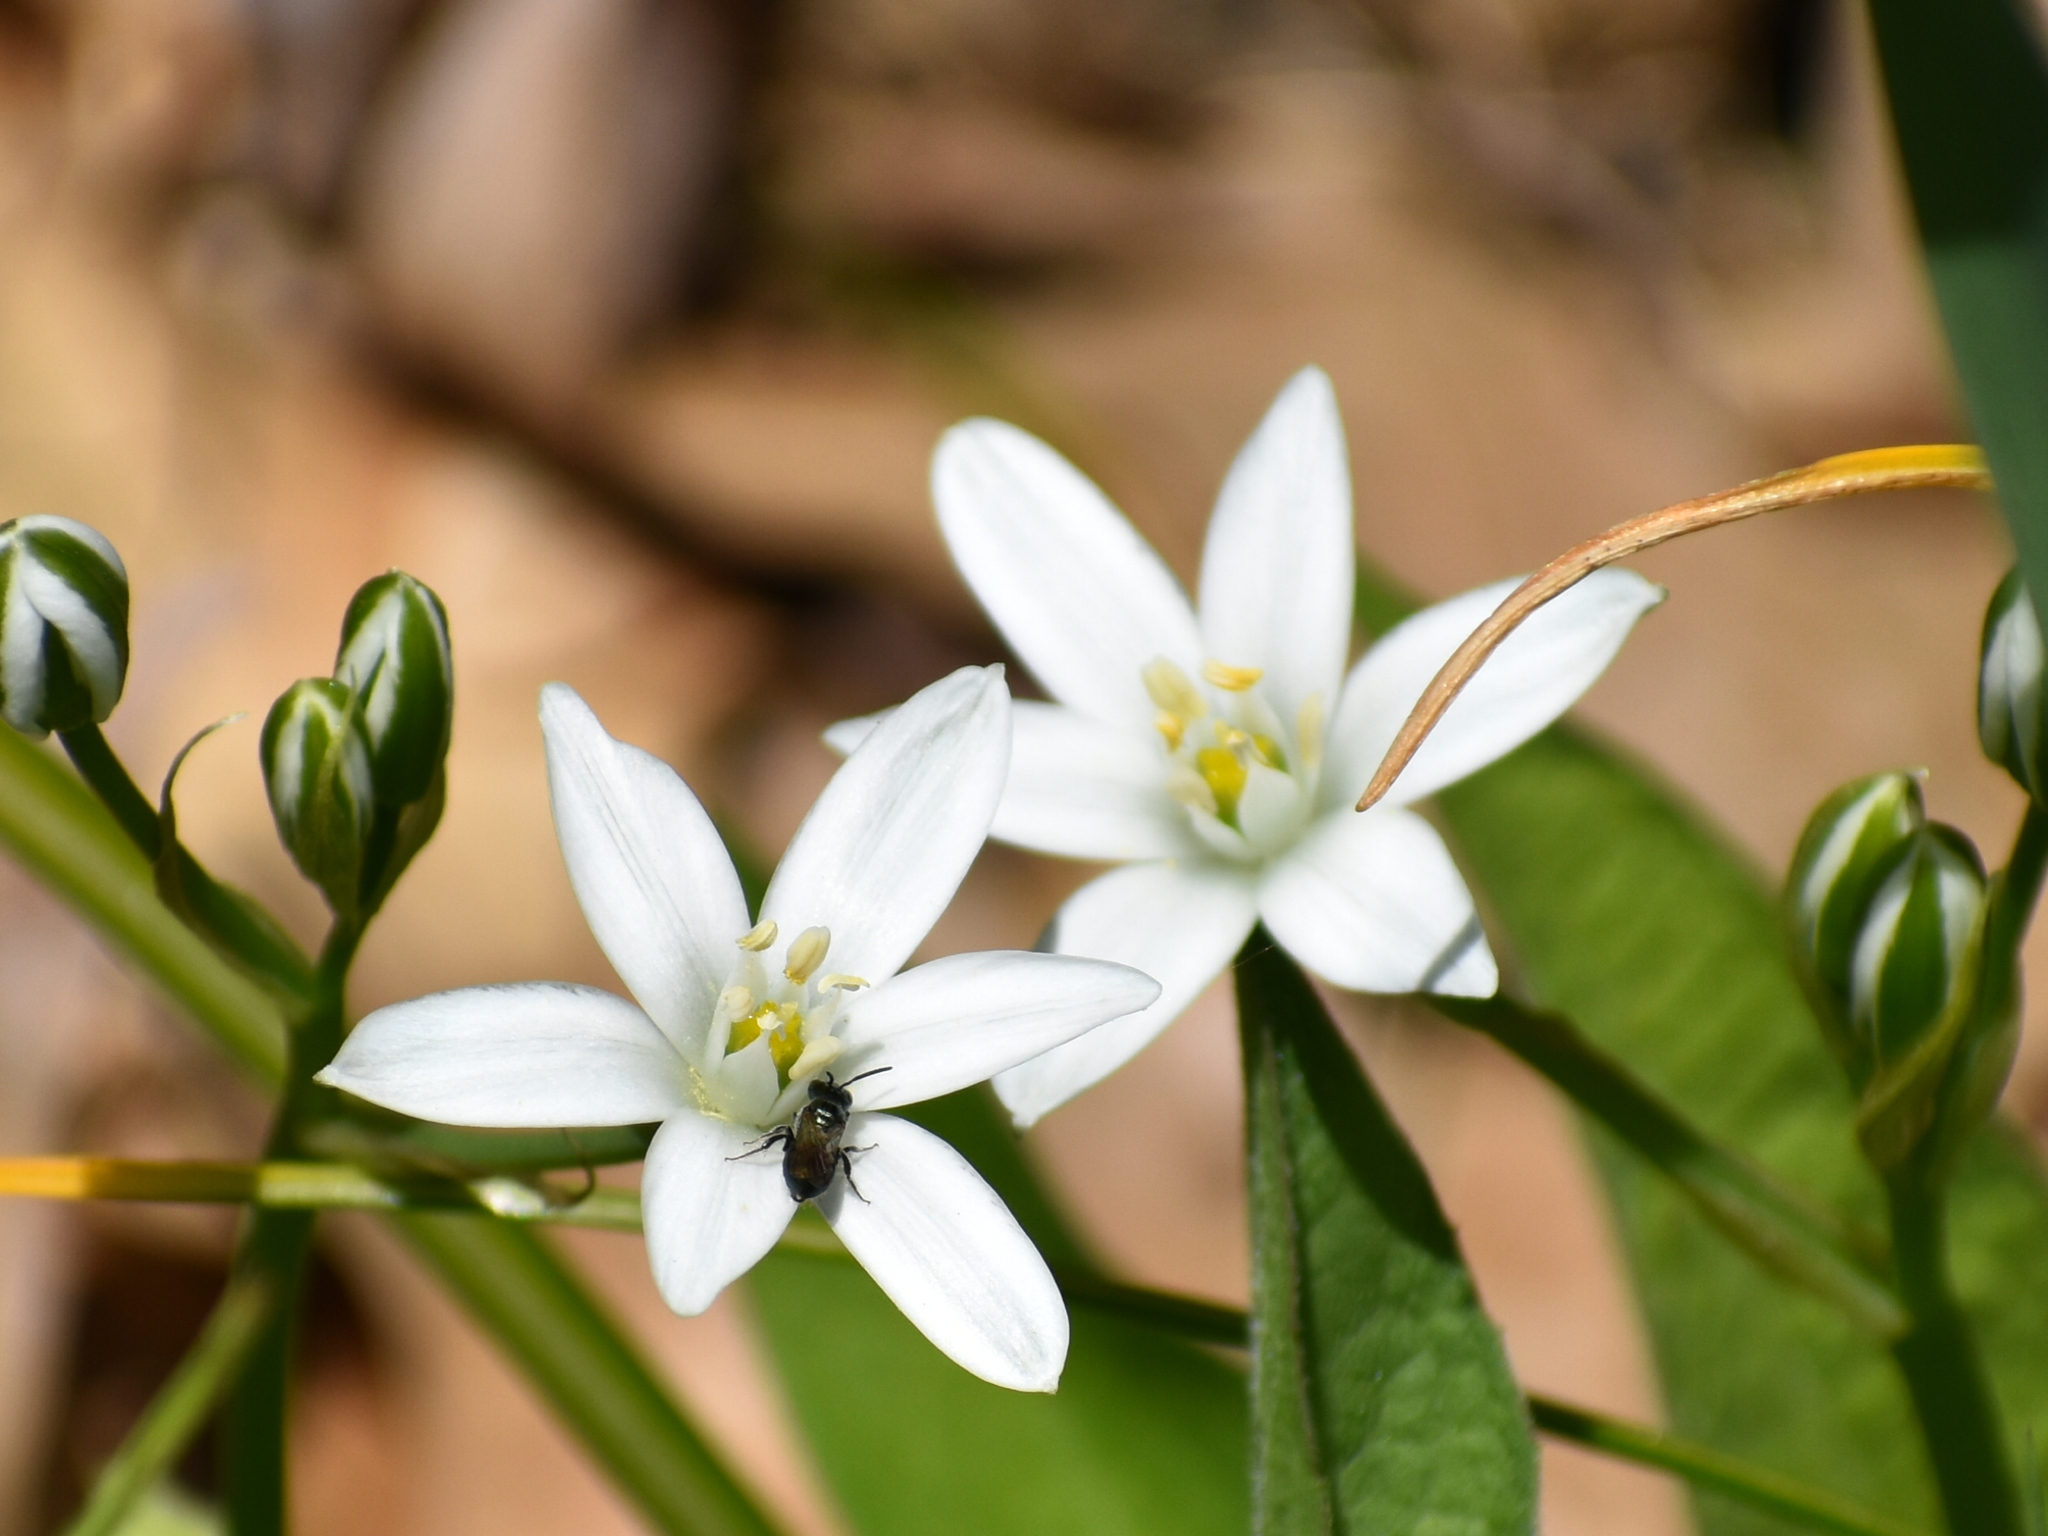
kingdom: Plantae
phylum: Tracheophyta
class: Liliopsida
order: Asparagales
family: Asparagaceae
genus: Ornithogalum
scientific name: Ornithogalum umbellatum
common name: Garden star-of-bethlehem
